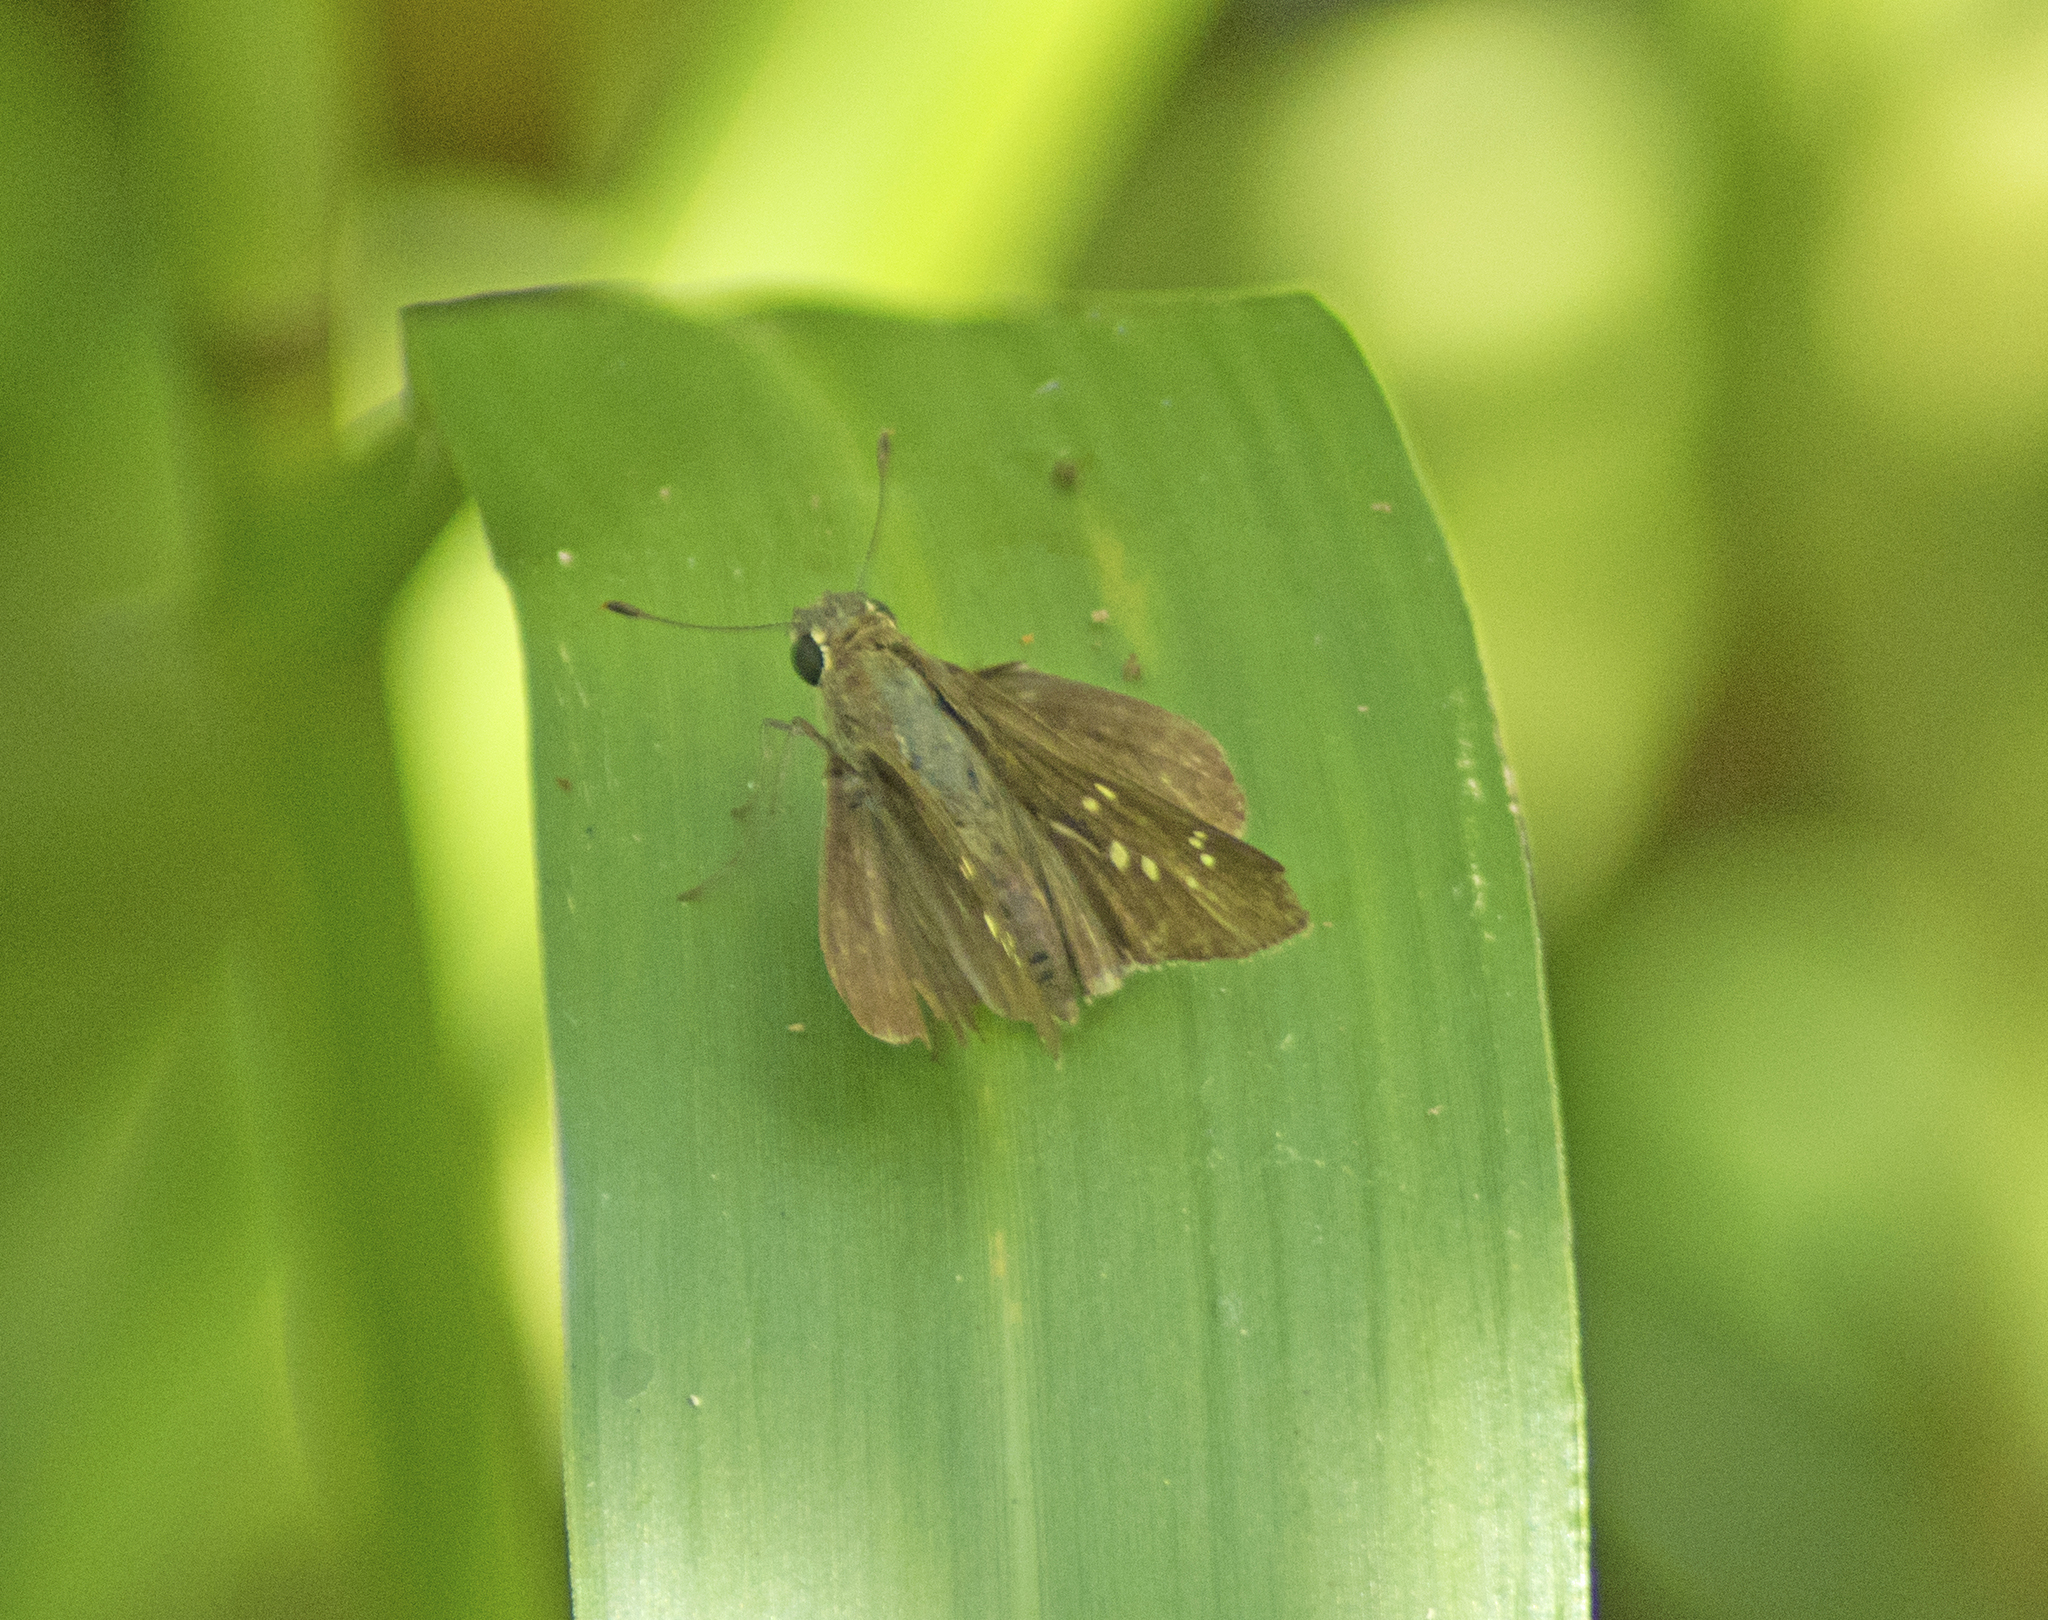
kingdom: Animalia
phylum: Arthropoda
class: Insecta
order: Lepidoptera
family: Hesperiidae
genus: Pelopidas
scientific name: Pelopidas lyelli
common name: Lyell's swift
